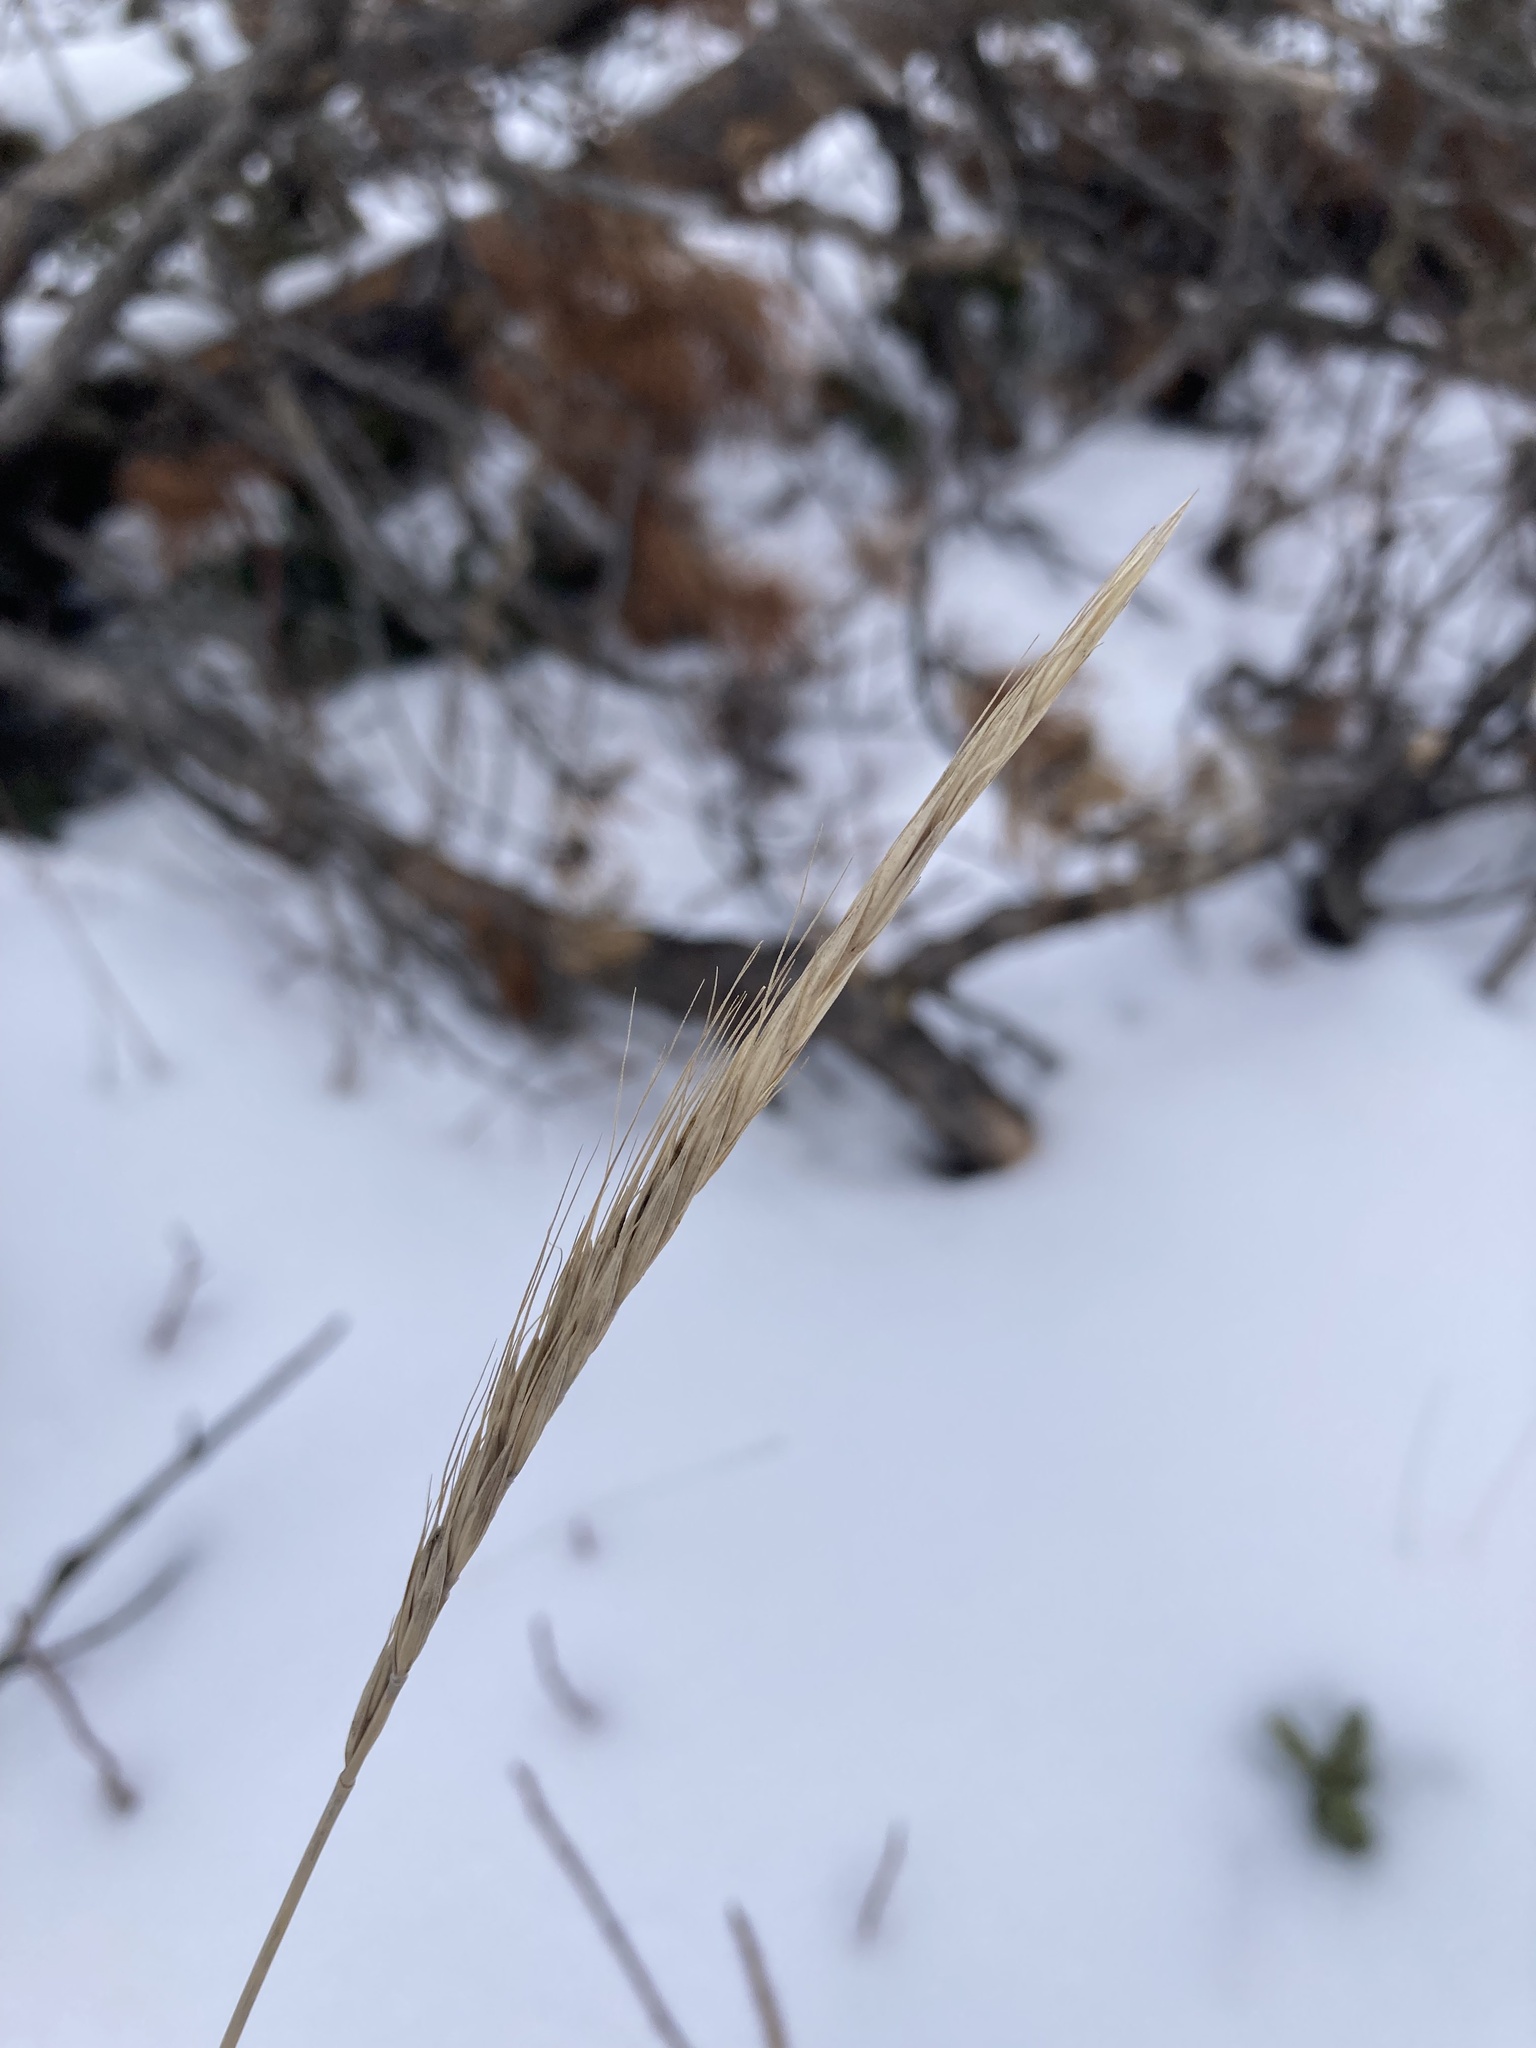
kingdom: Plantae
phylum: Tracheophyta
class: Liliopsida
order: Poales
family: Poaceae
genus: Elymus
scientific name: Elymus violaceus
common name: Arctic wheatgrass
